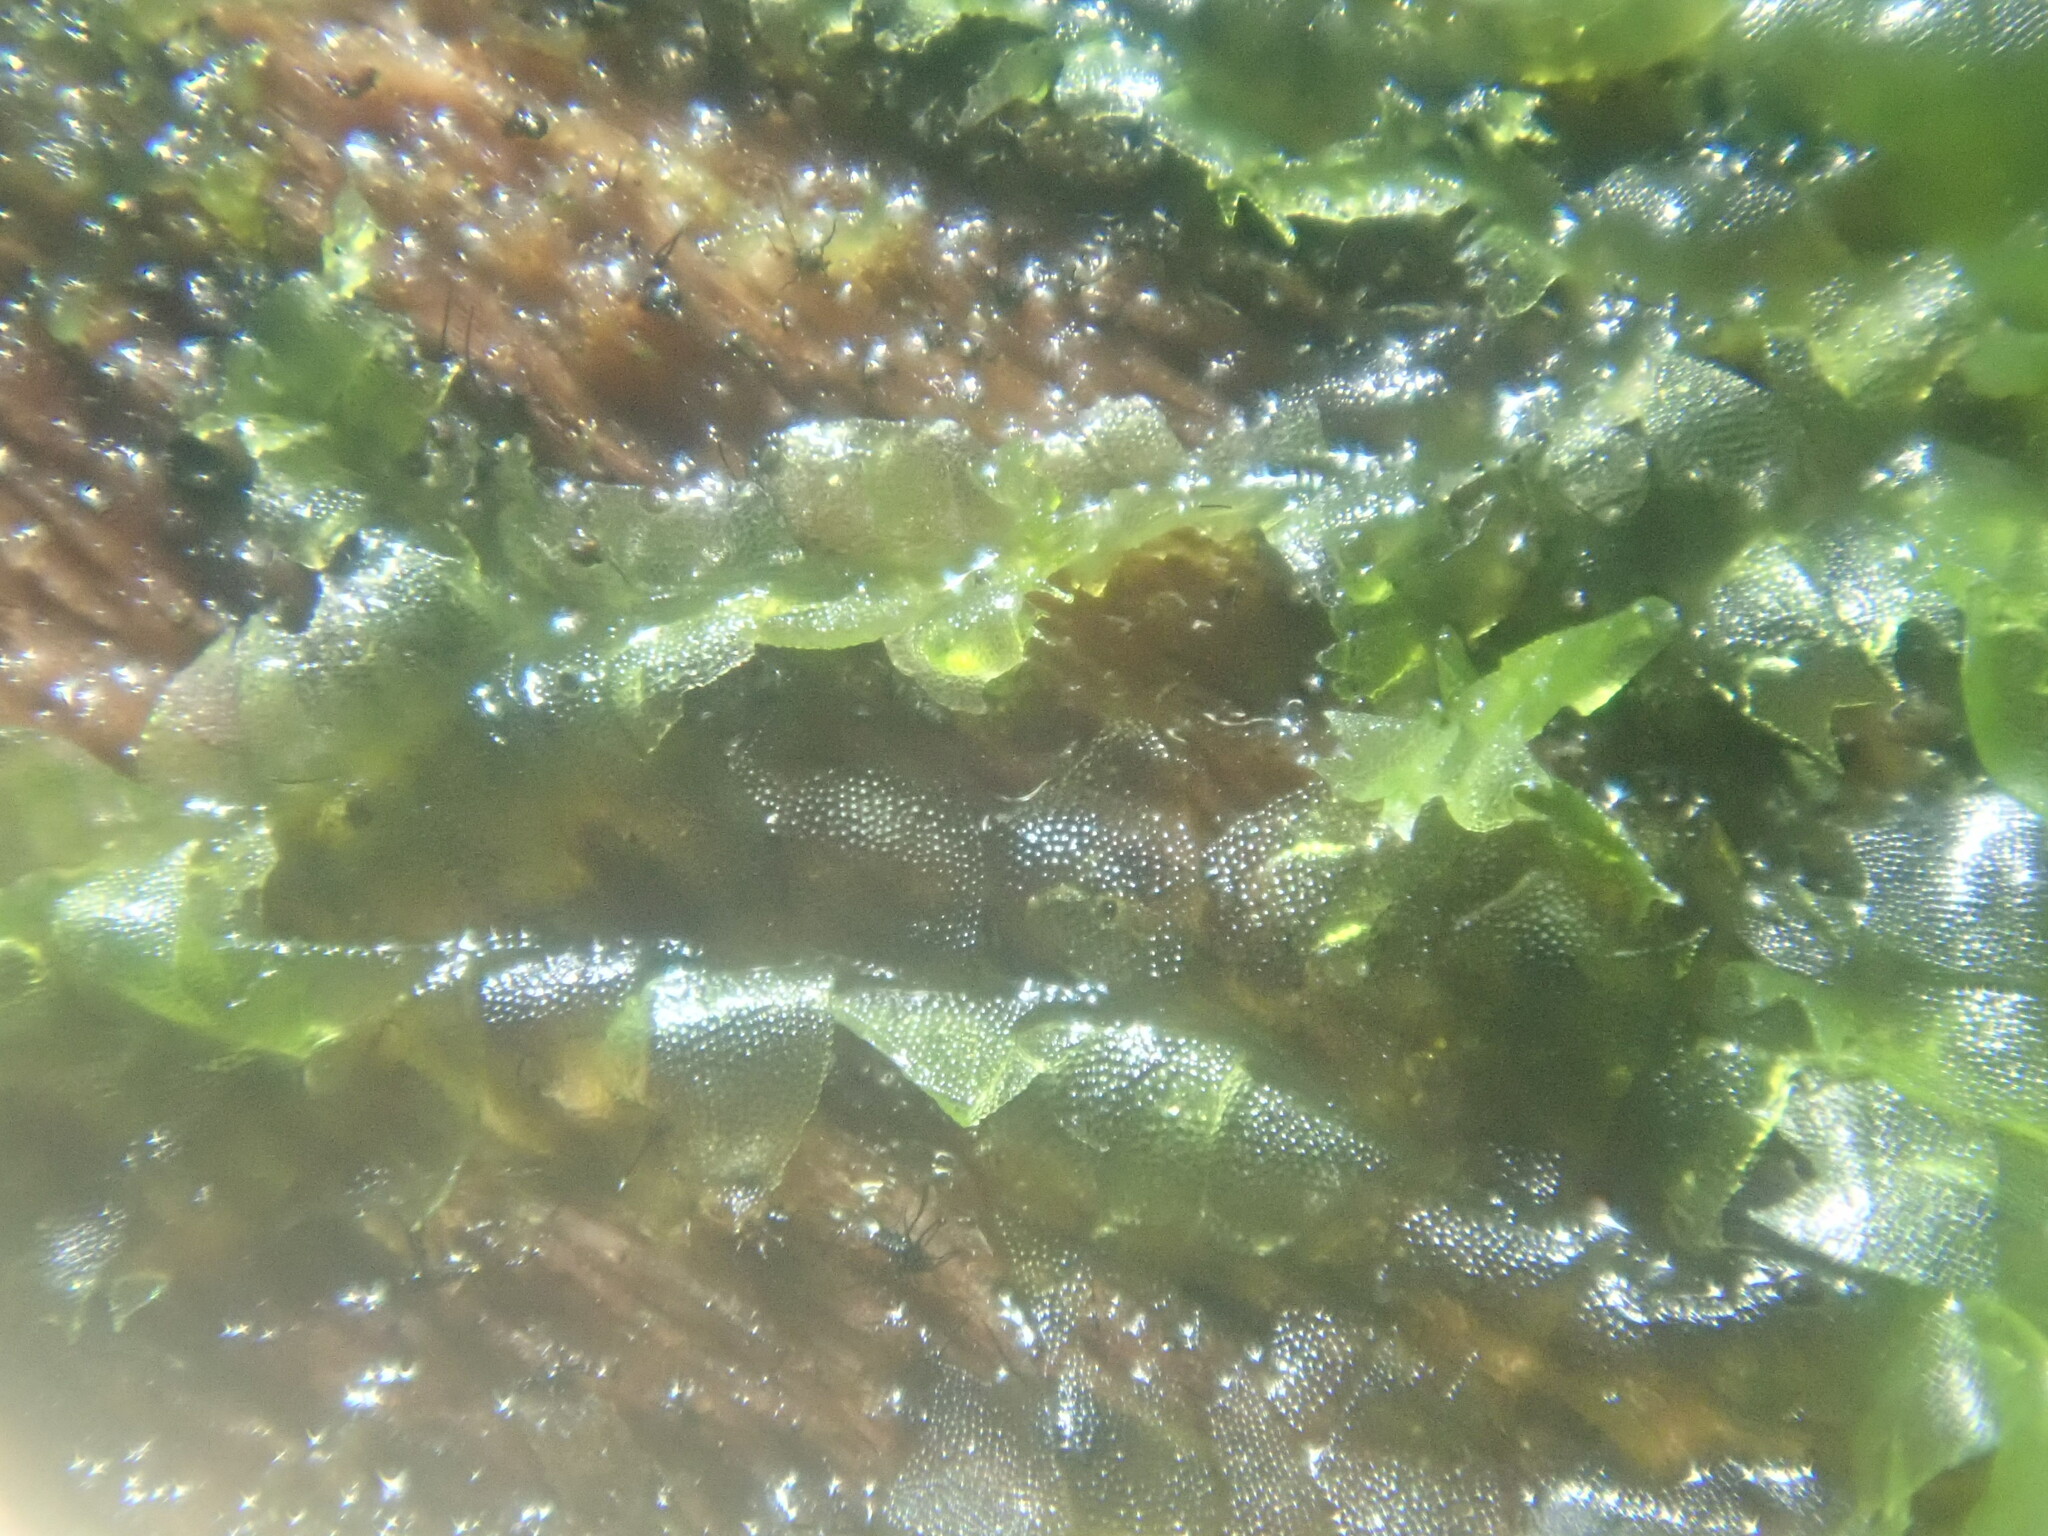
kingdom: Plantae
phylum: Marchantiophyta
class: Jungermanniopsida
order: Jungermanniales
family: Lophocoleaceae
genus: Lophocolea
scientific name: Lophocolea heterophylla
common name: Variable-leaved crestwort
